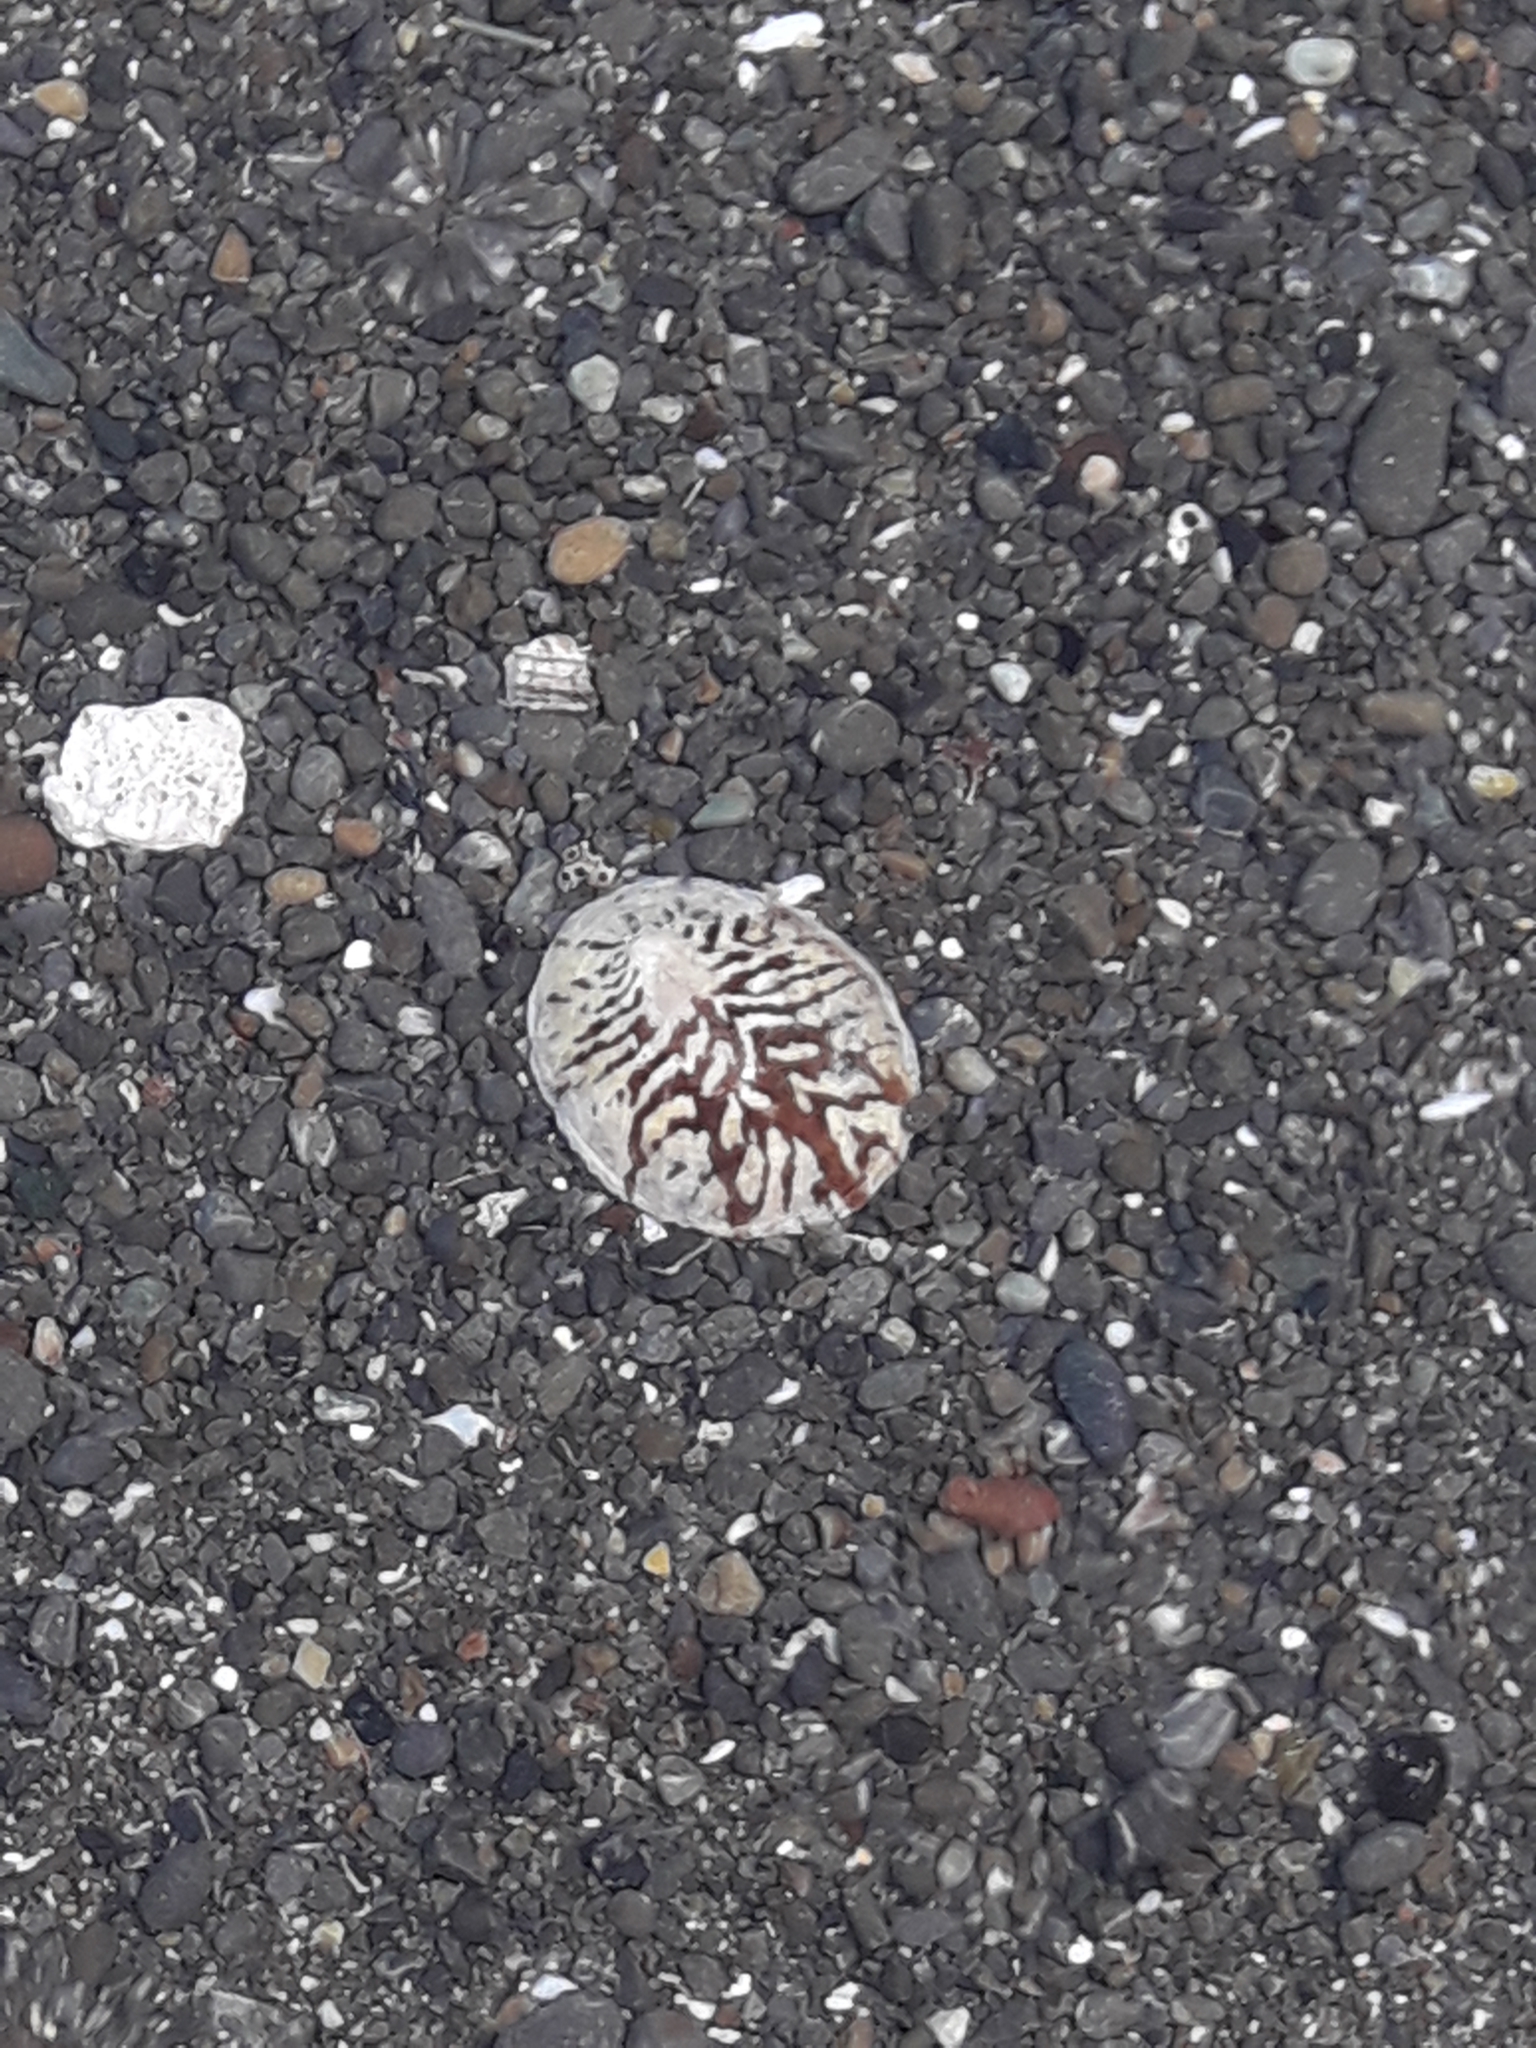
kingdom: Animalia
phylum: Mollusca
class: Gastropoda
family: Nacellidae
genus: Cellana
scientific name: Cellana radians
